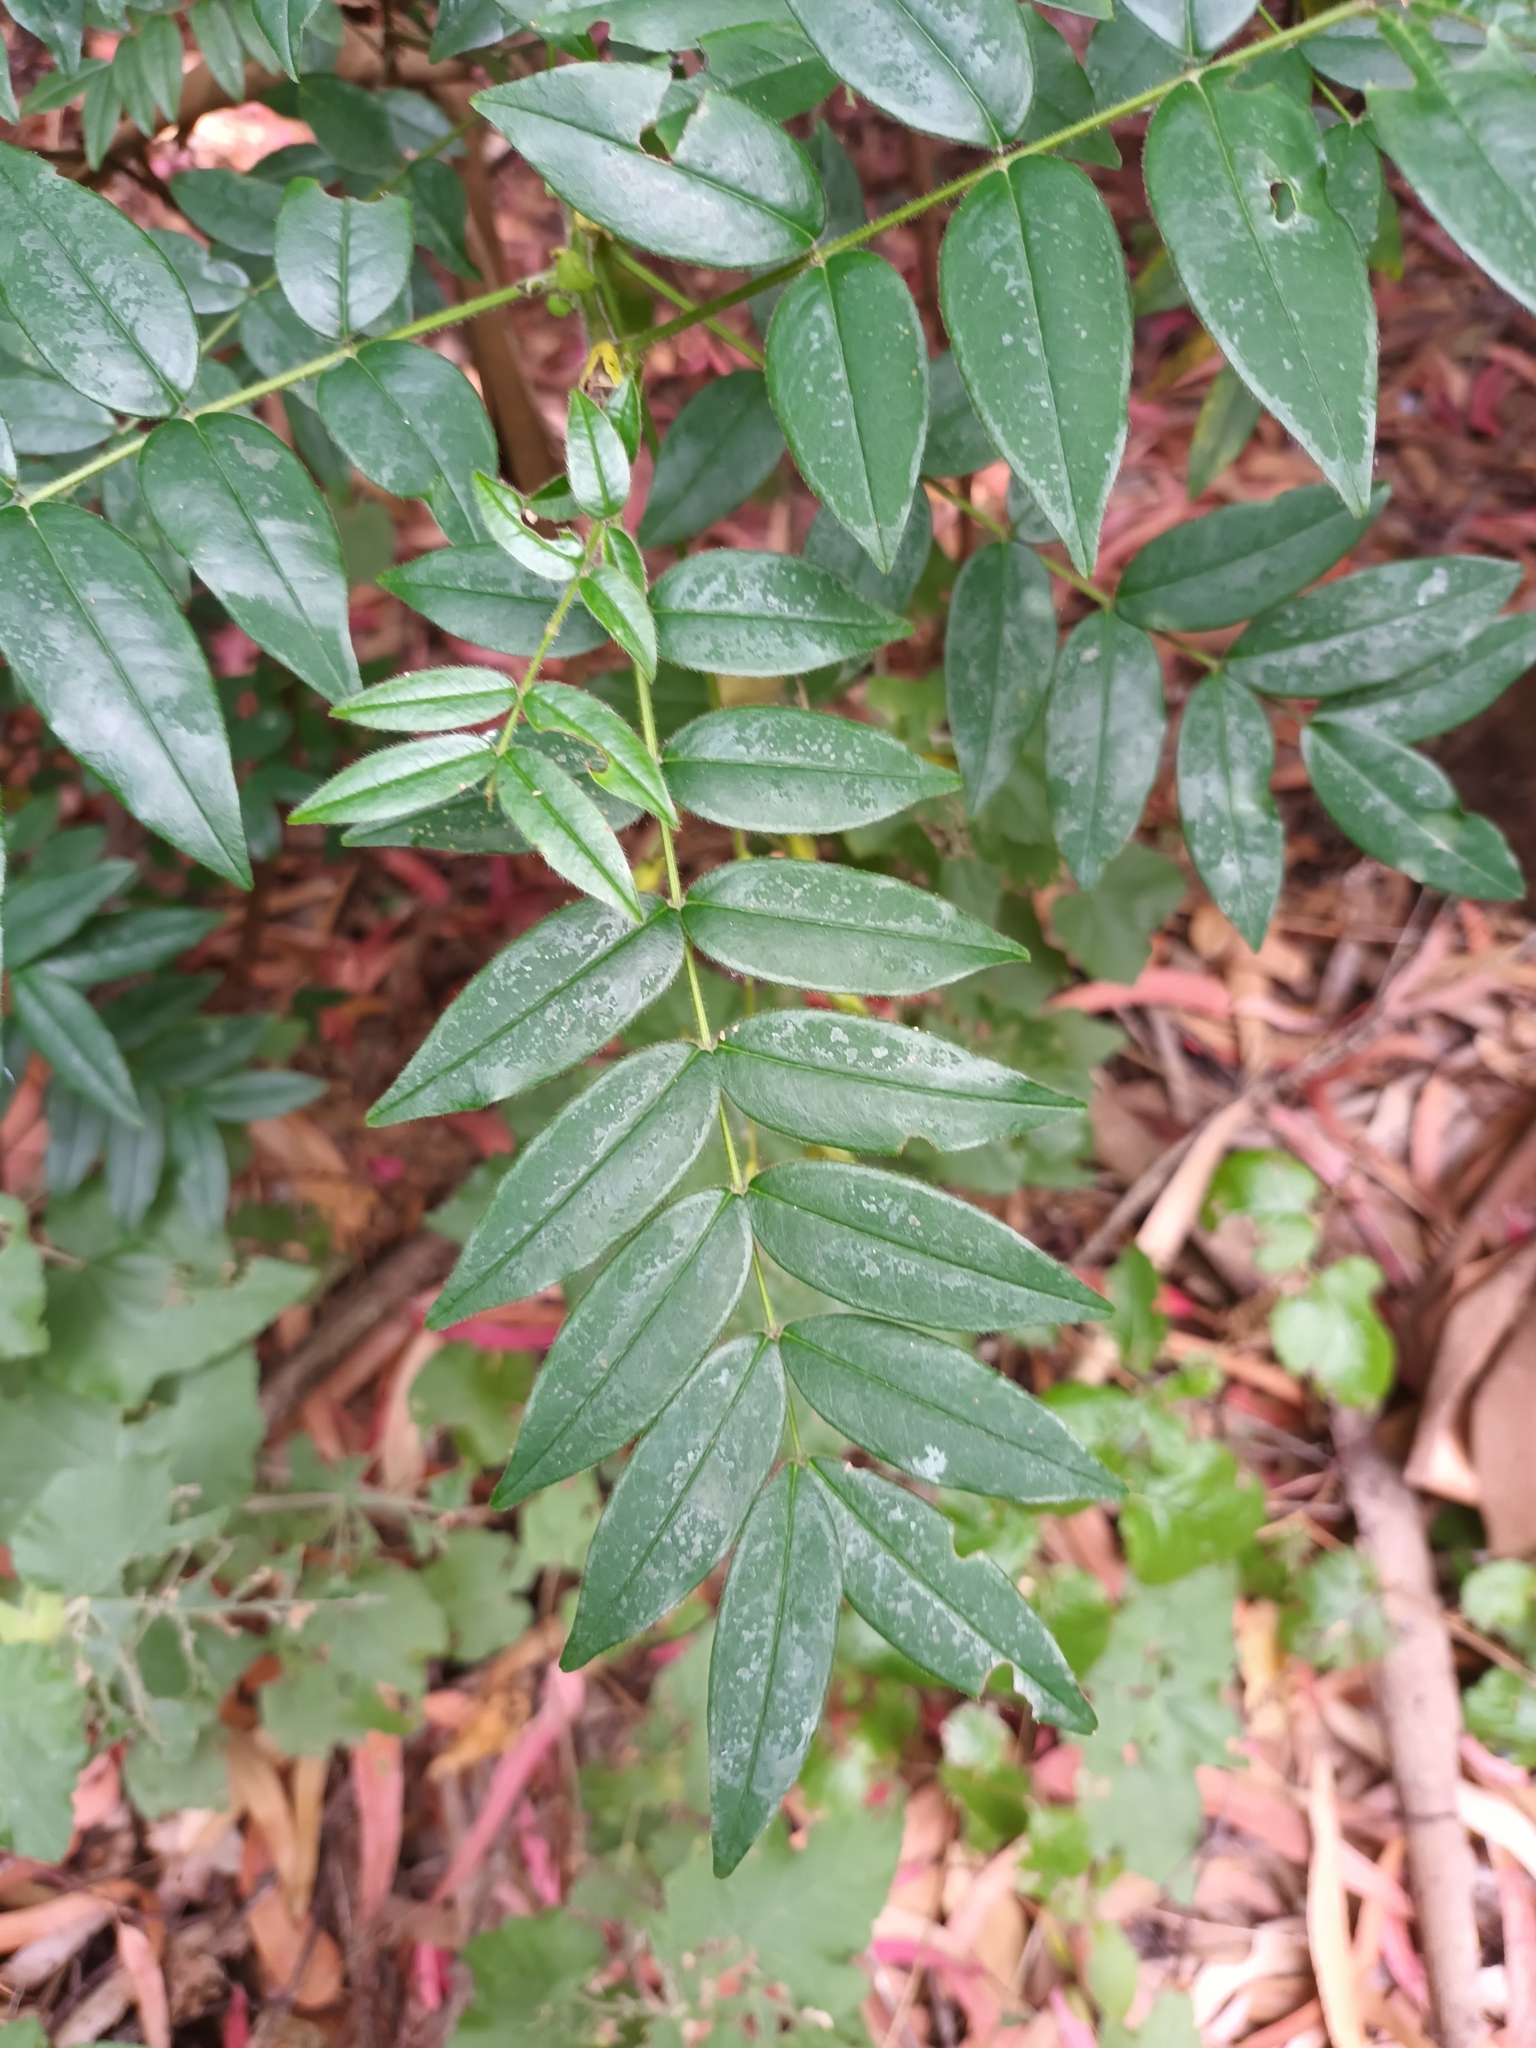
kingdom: Plantae
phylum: Tracheophyta
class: Magnoliopsida
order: Fabales
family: Fabaceae
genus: Senna
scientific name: Senna stipulacea
